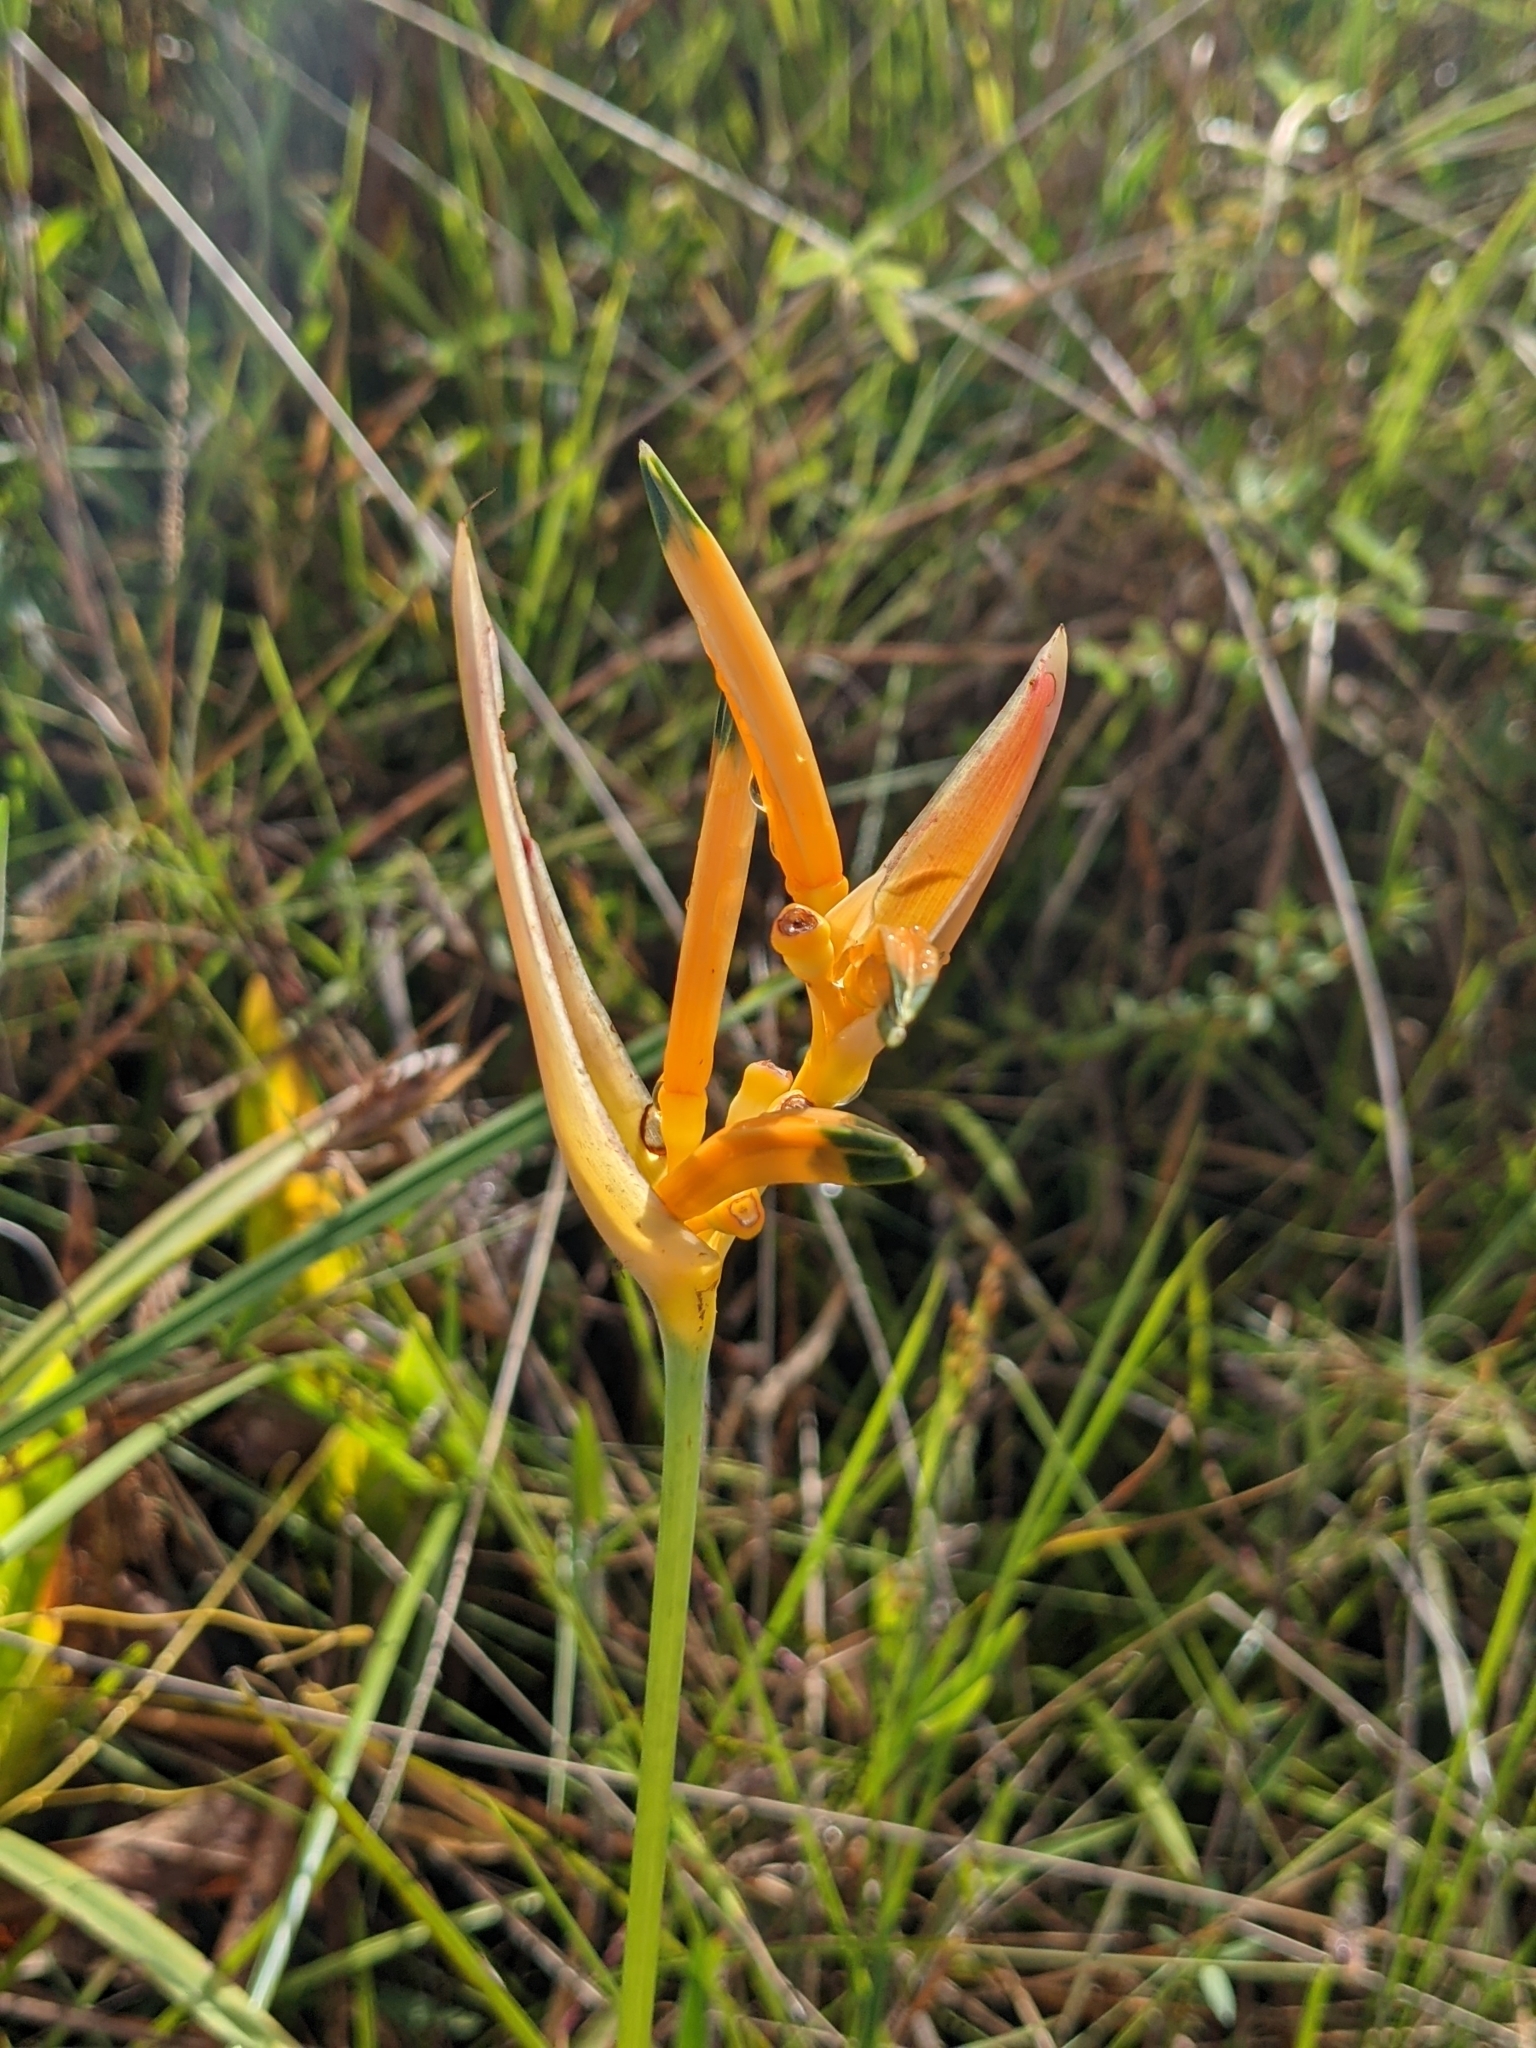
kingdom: Plantae
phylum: Tracheophyta
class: Liliopsida
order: Zingiberales
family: Heliconiaceae
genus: Heliconia
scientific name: Heliconia psittacorum
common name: Parrot's-flower
